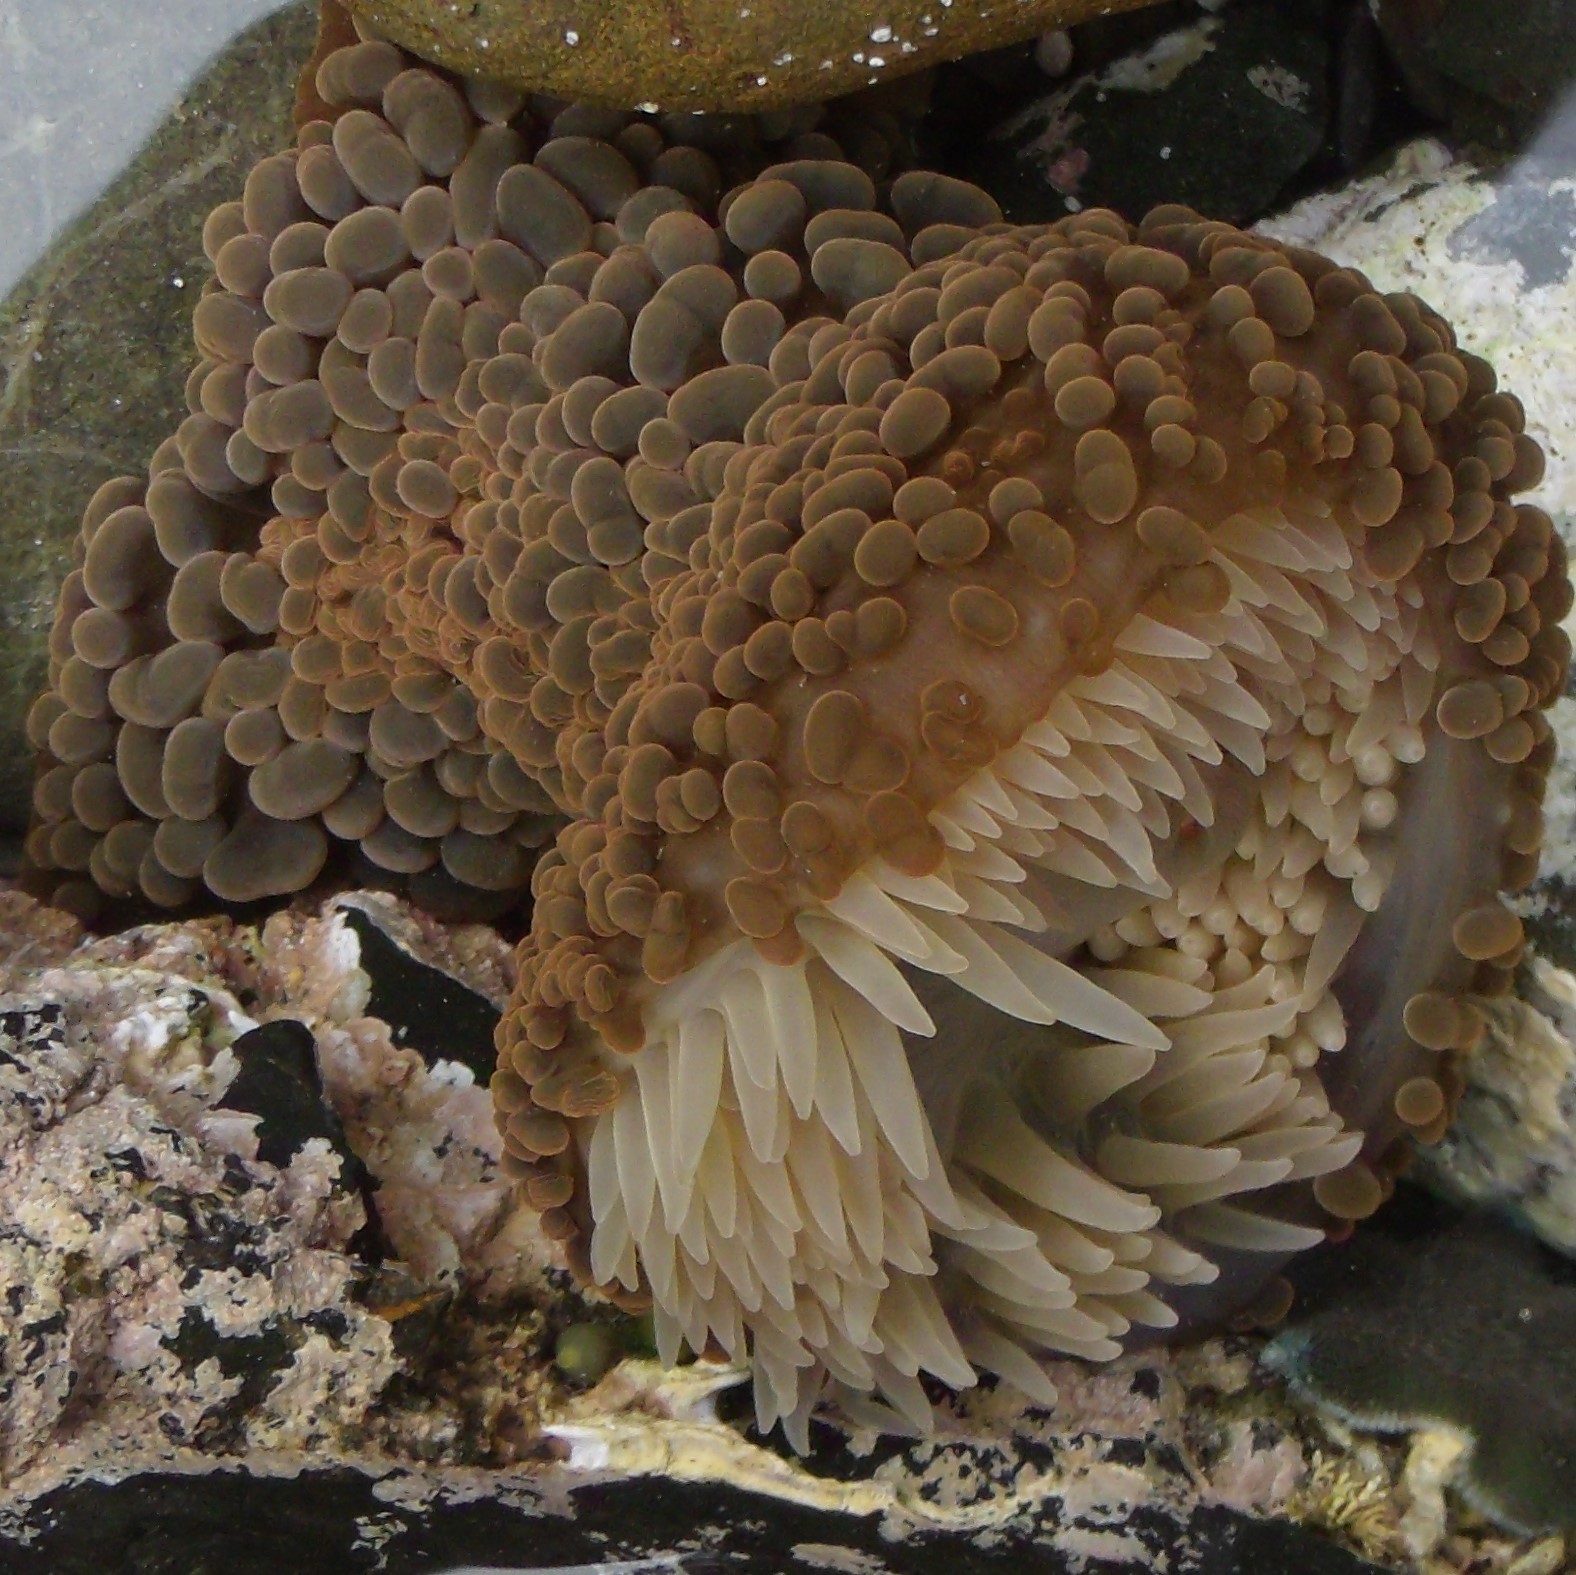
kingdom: Animalia
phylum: Cnidaria
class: Anthozoa
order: Actiniaria
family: Actiniidae
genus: Phlyctenactis
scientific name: Phlyctenactis tuberculosa
